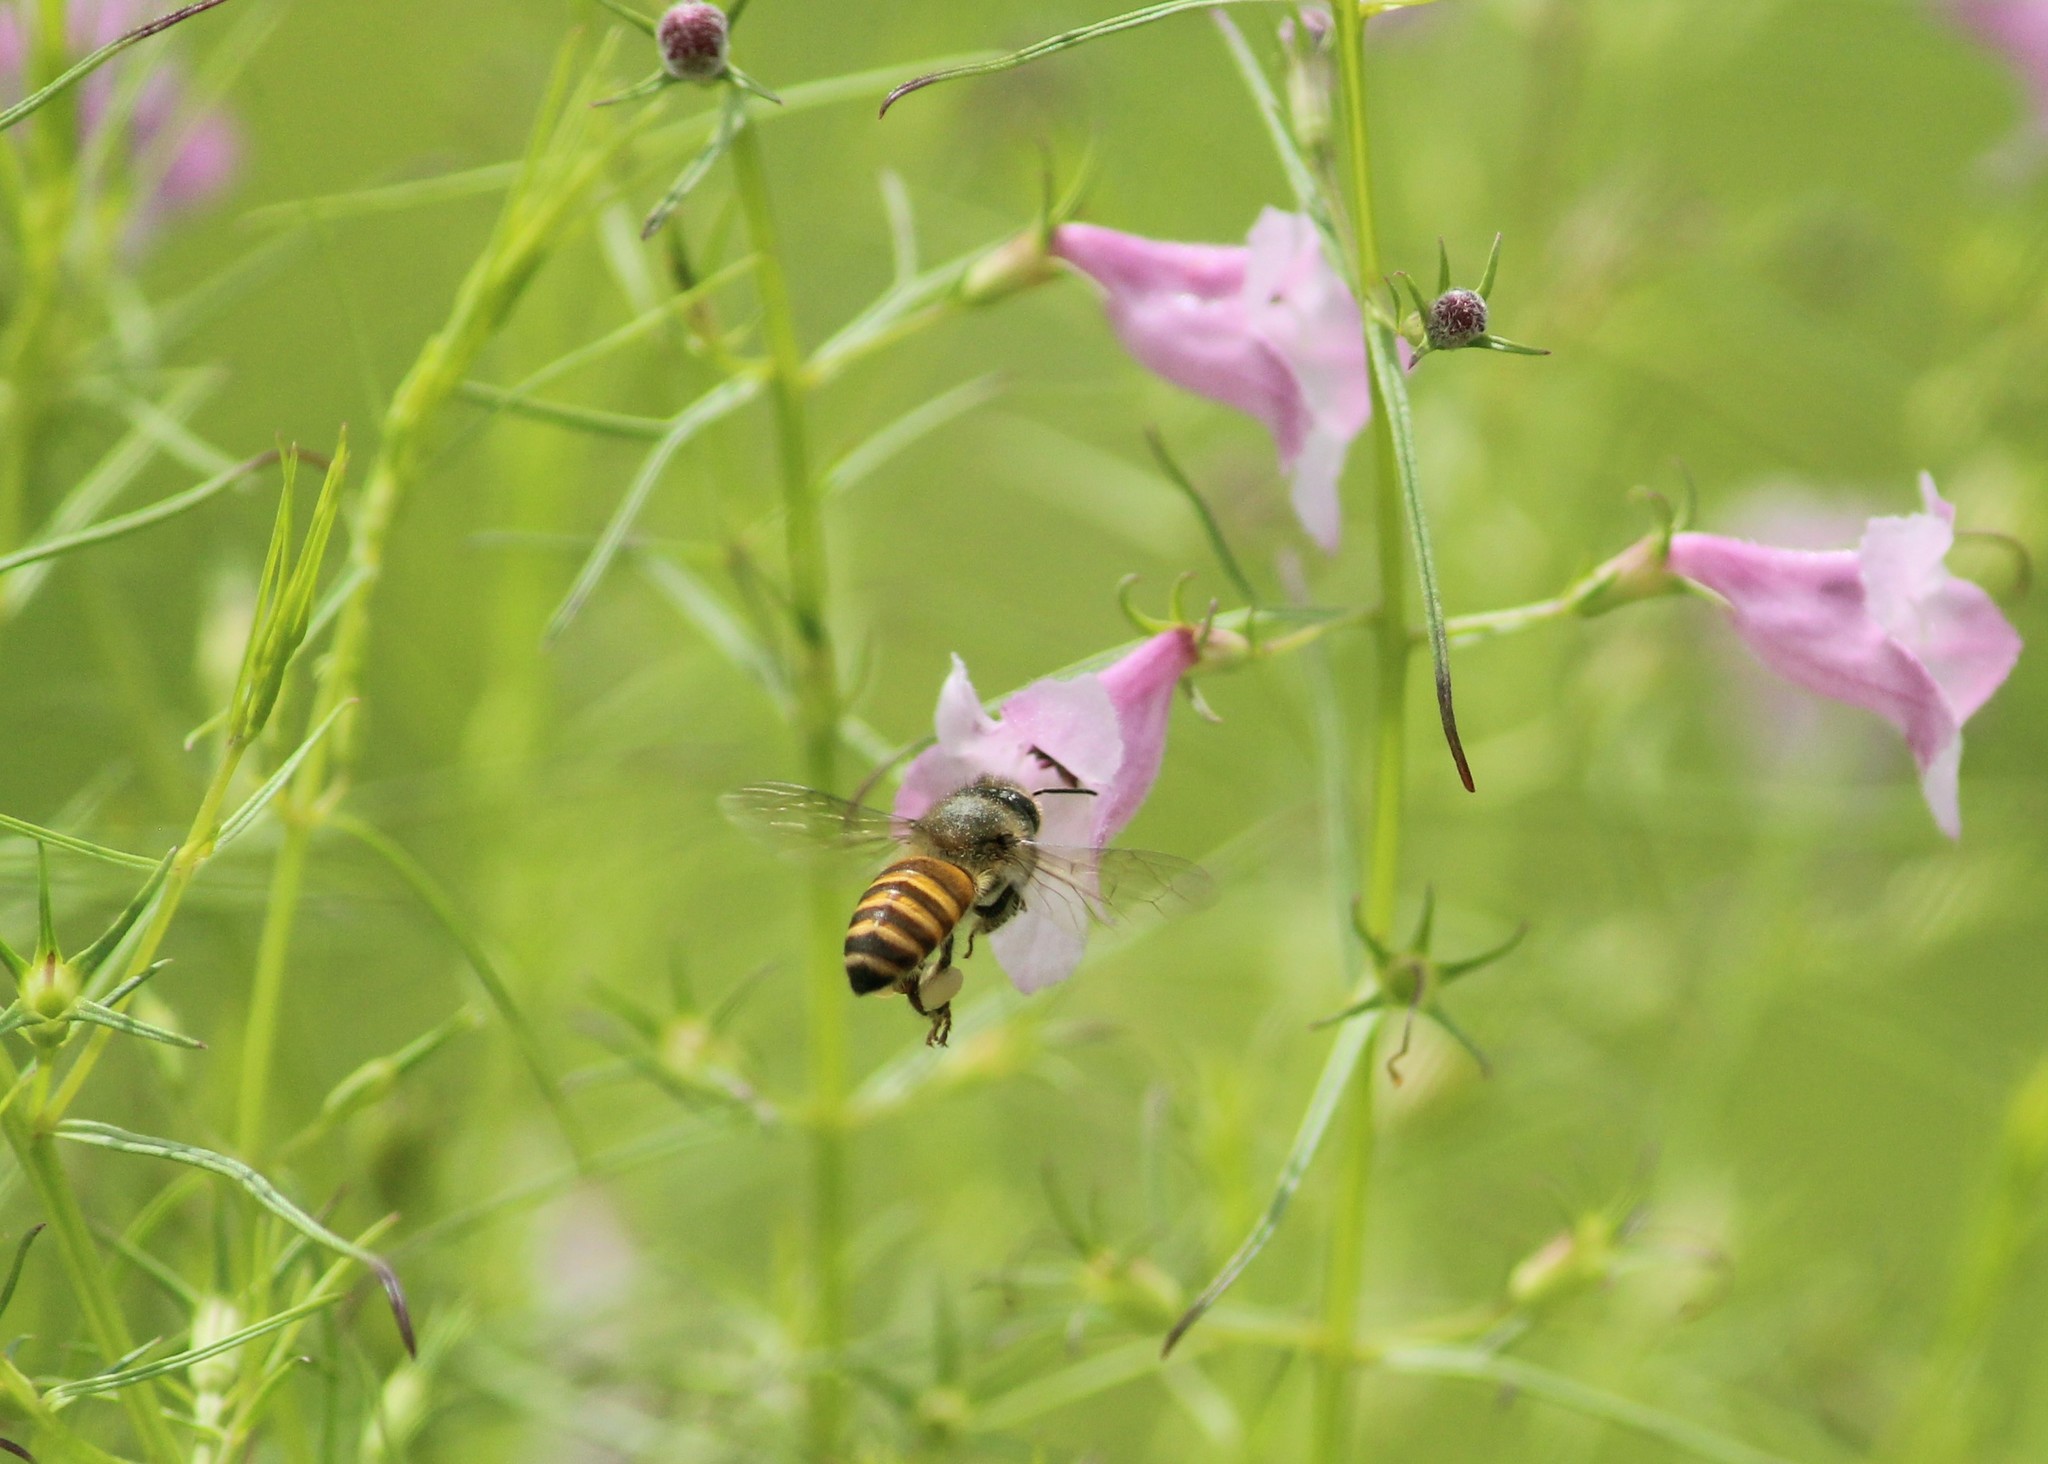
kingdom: Animalia
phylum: Arthropoda
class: Insecta
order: Hymenoptera
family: Apidae
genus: Apis
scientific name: Apis cerana
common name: Honey bee
